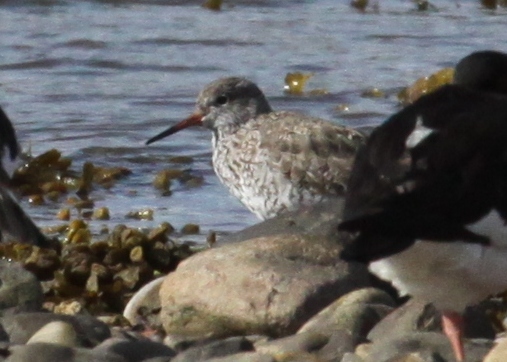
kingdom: Animalia
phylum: Chordata
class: Aves
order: Charadriiformes
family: Scolopacidae
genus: Tringa
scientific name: Tringa totanus
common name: Common redshank
